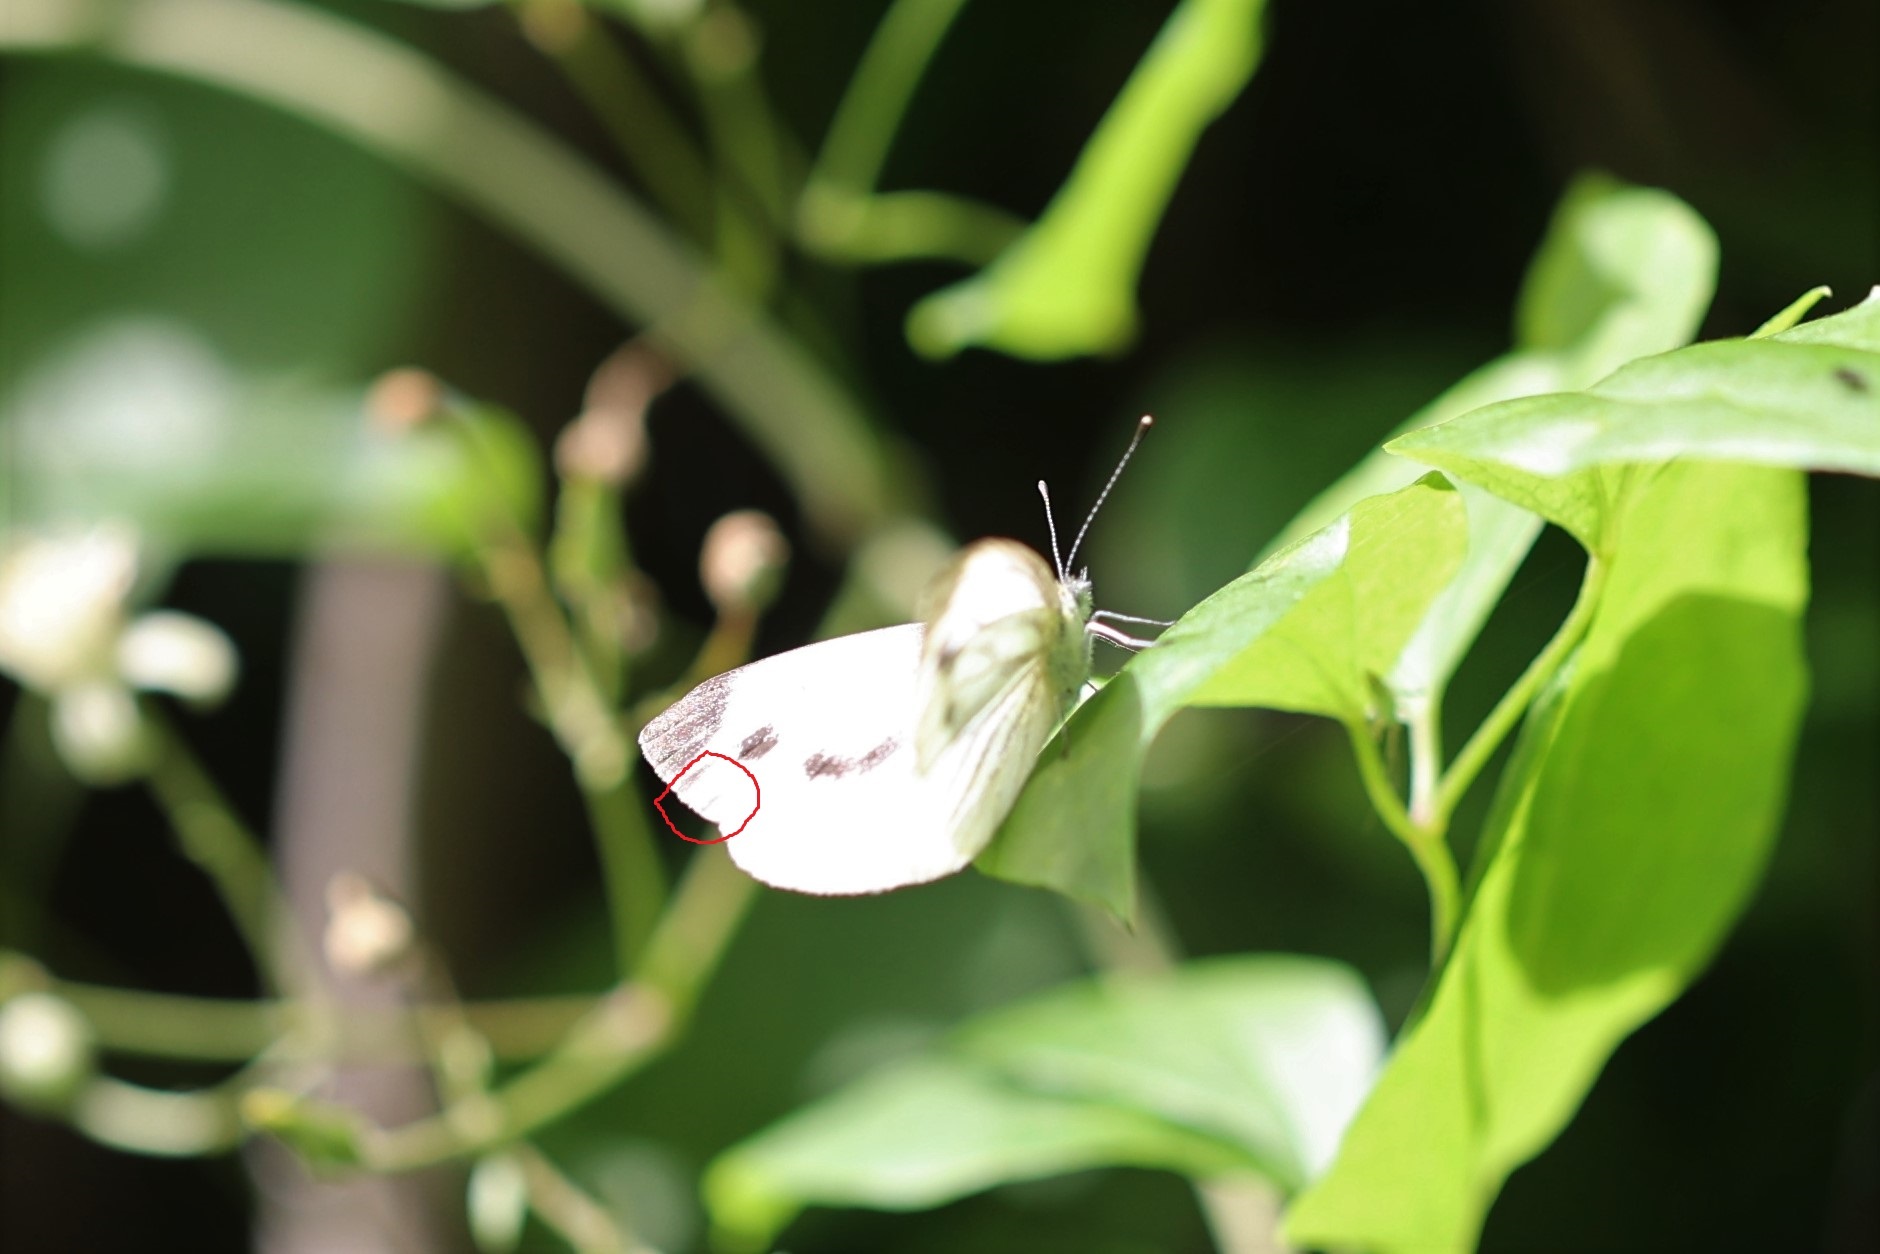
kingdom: Animalia
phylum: Arthropoda
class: Insecta
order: Lepidoptera
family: Pieridae
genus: Pieris
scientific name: Pieris napi
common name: Green-veined white
